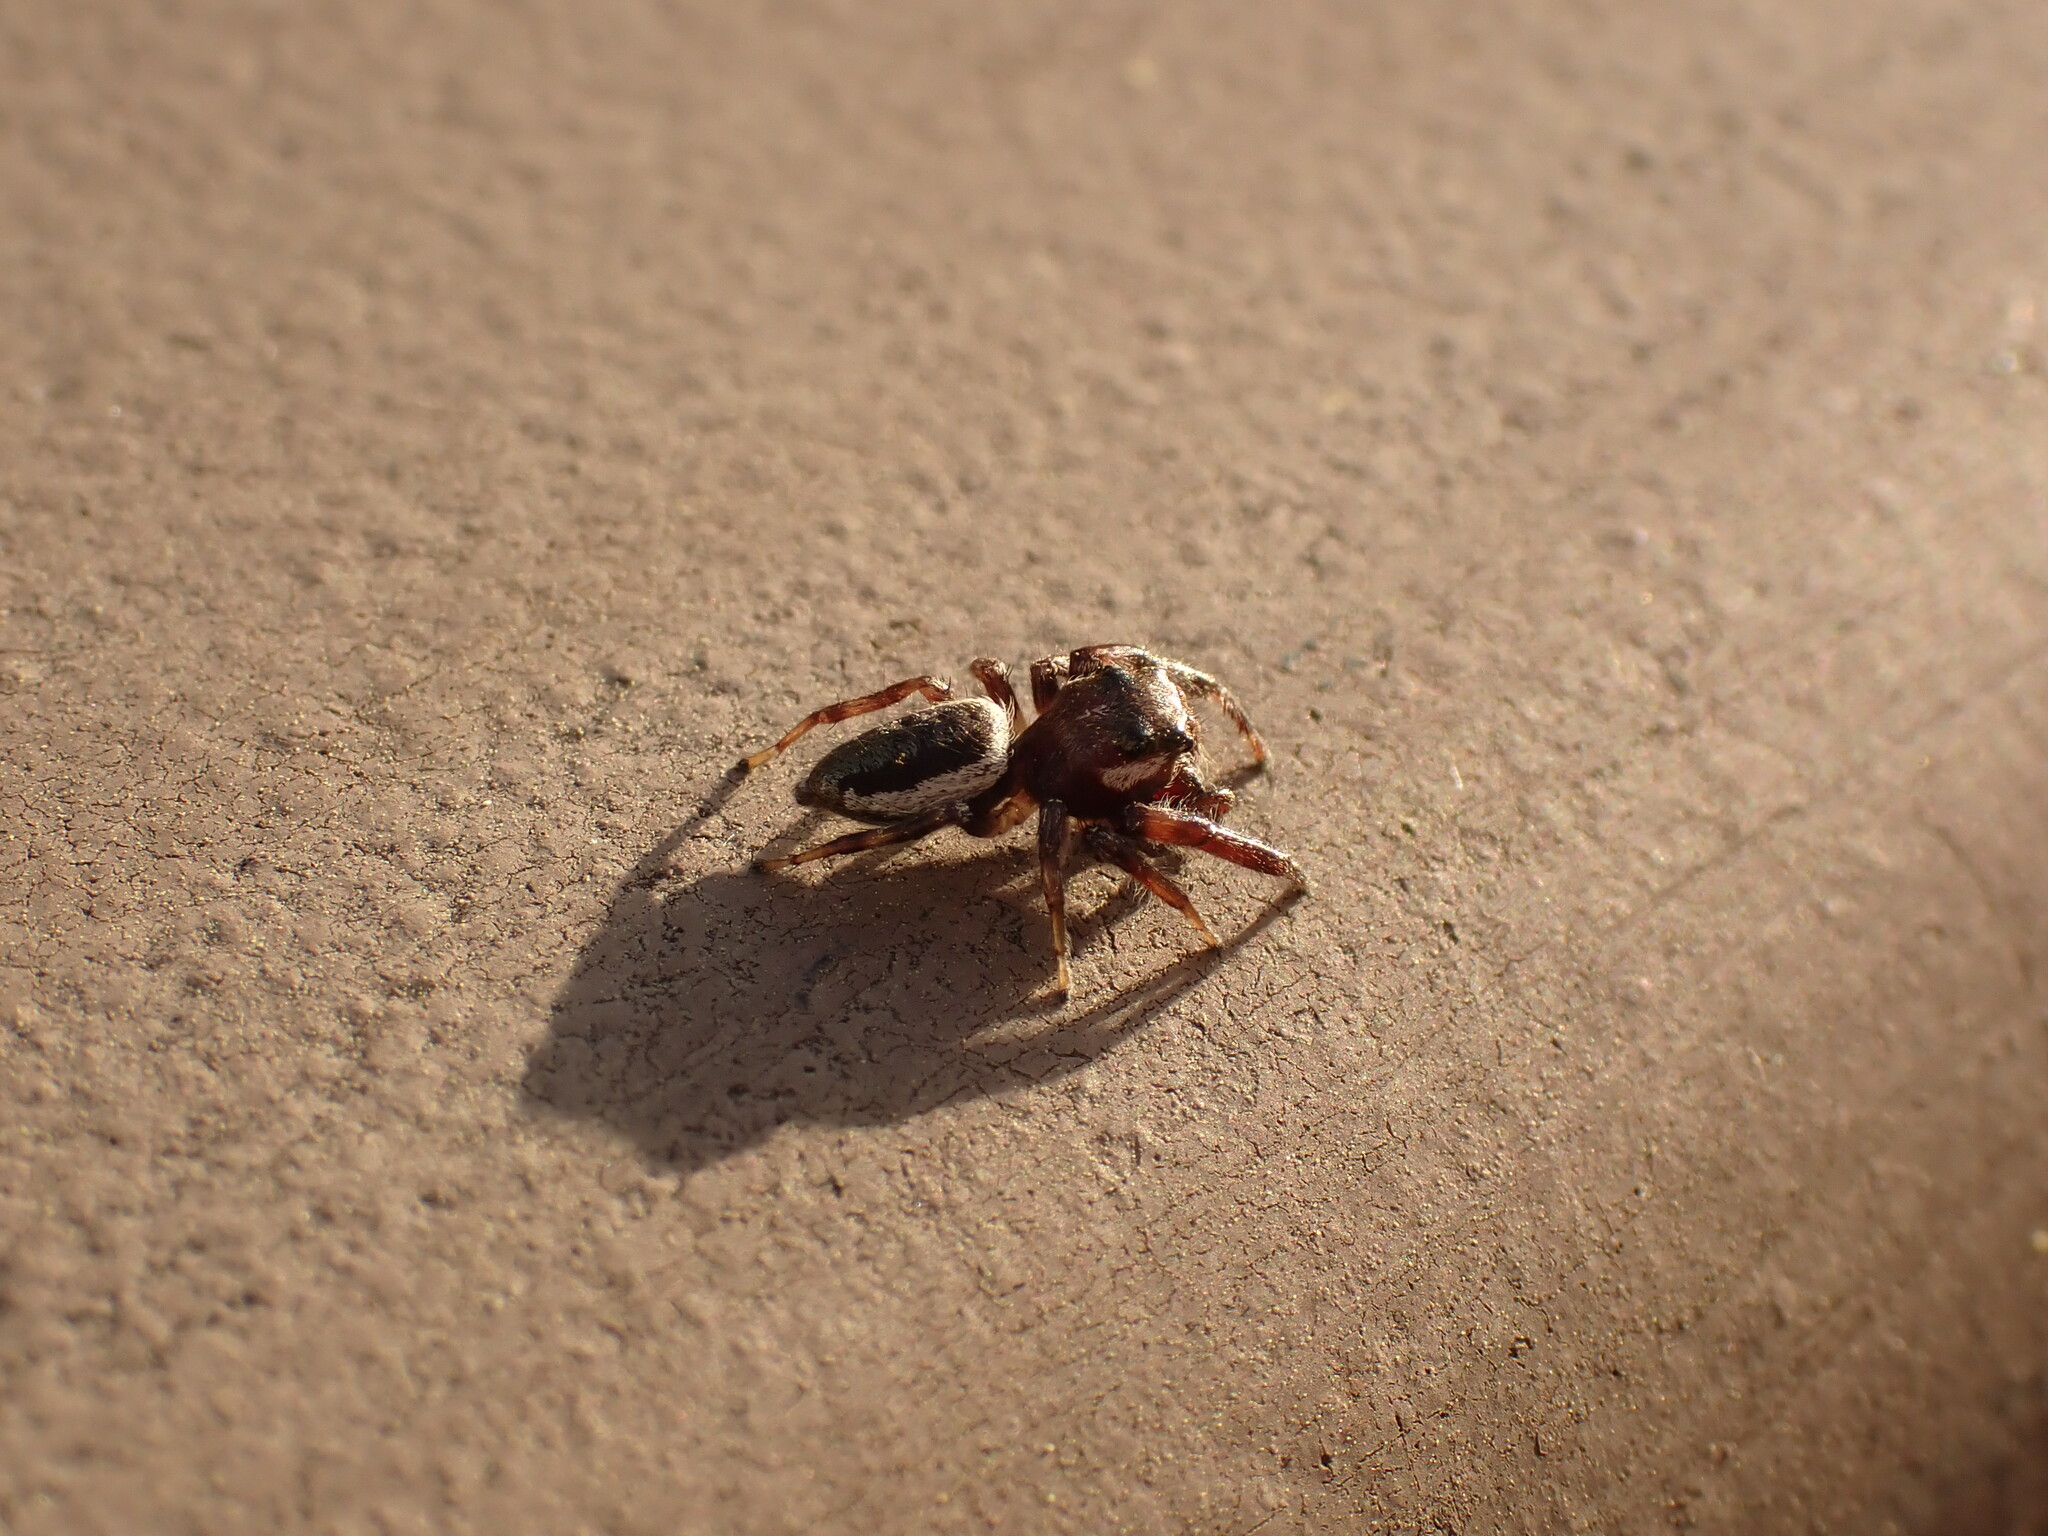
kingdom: Animalia
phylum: Arthropoda
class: Arachnida
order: Araneae
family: Salticidae
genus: Eris
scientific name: Eris militaris
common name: Bronze jumper
